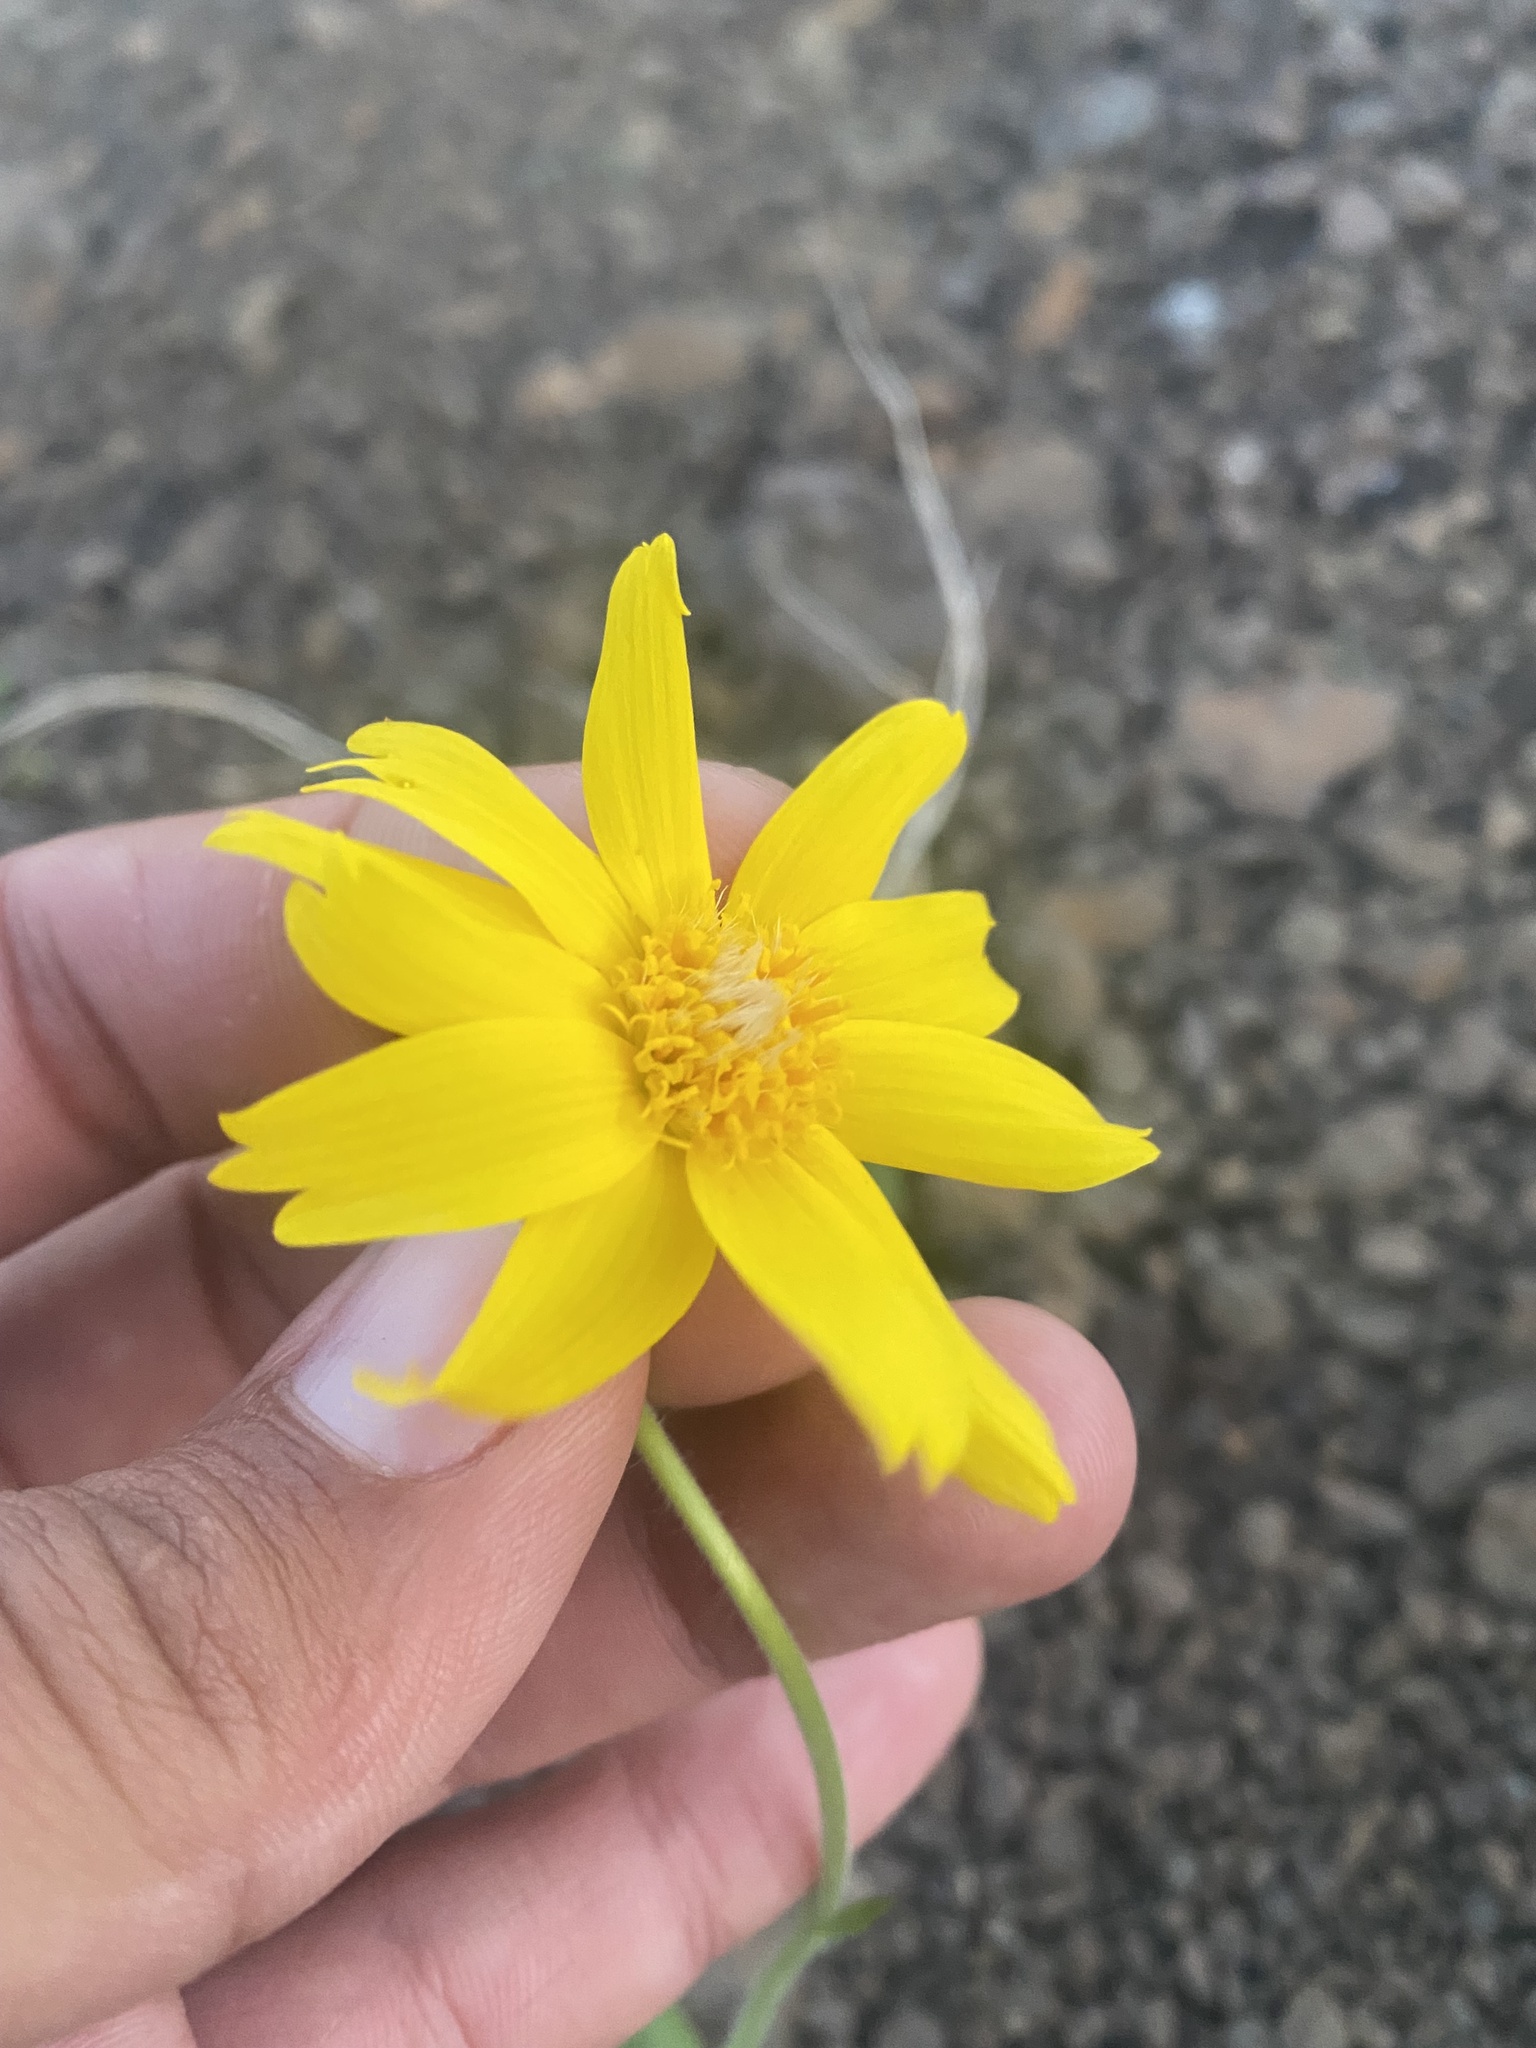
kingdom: Plantae
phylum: Tracheophyta
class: Magnoliopsida
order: Asterales
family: Asteraceae
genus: Arnica
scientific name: Arnica angustifolia
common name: Arctic arnica
